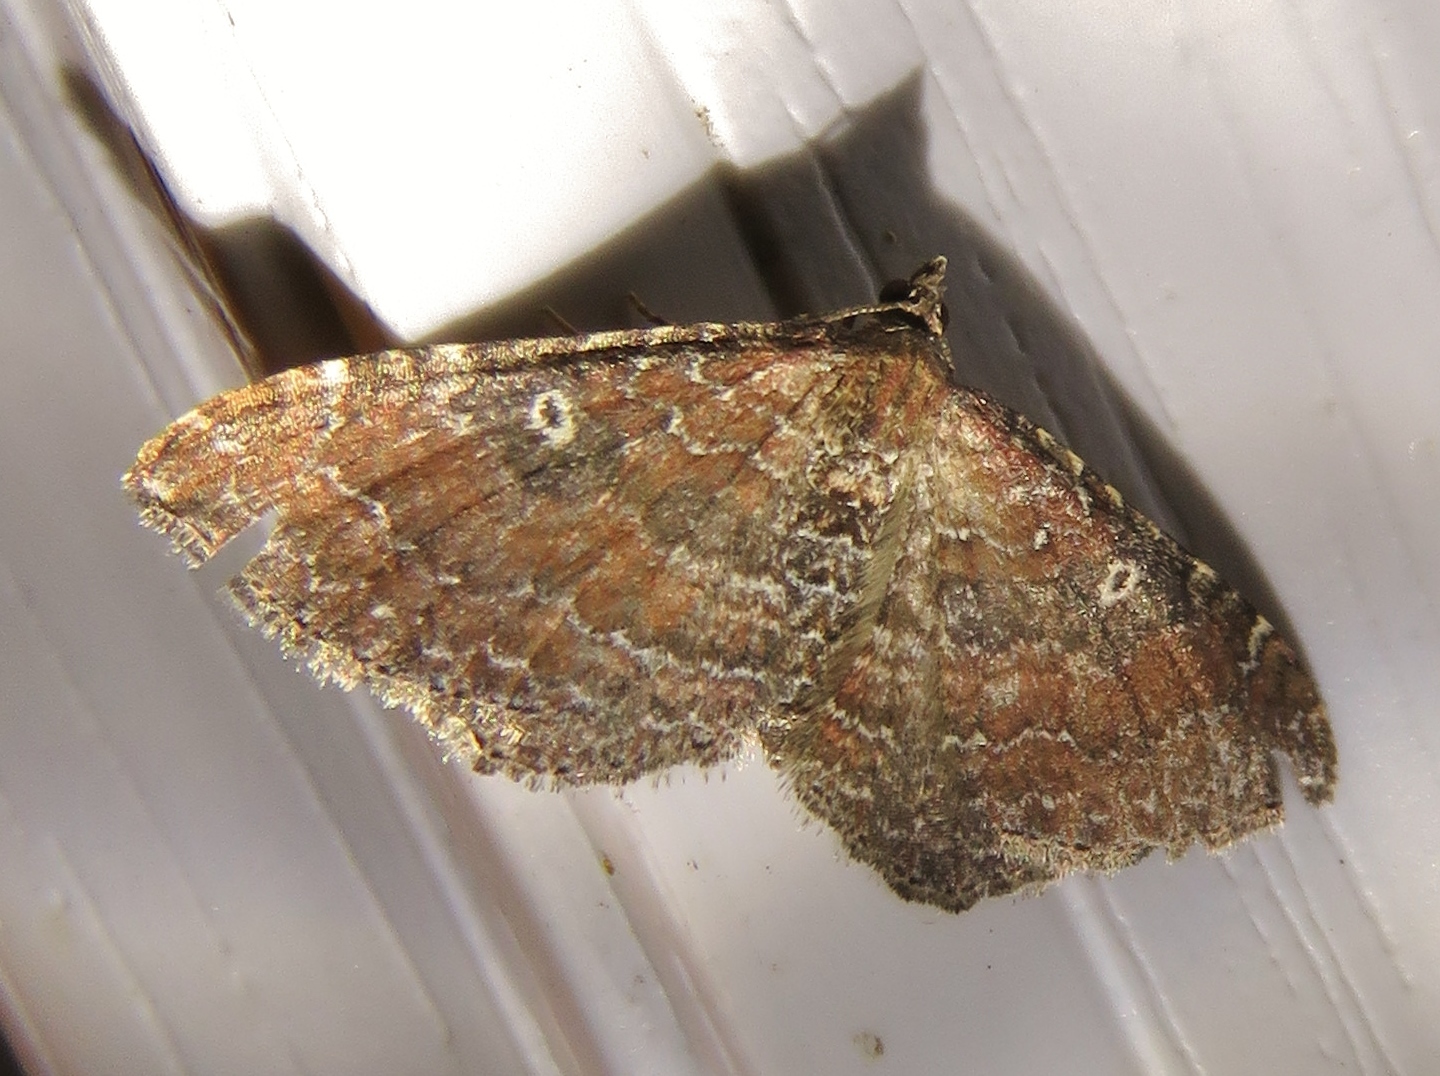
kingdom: Animalia
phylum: Arthropoda
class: Insecta
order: Lepidoptera
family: Geometridae
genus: Orthonama
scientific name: Orthonama obstipata
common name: The gem
